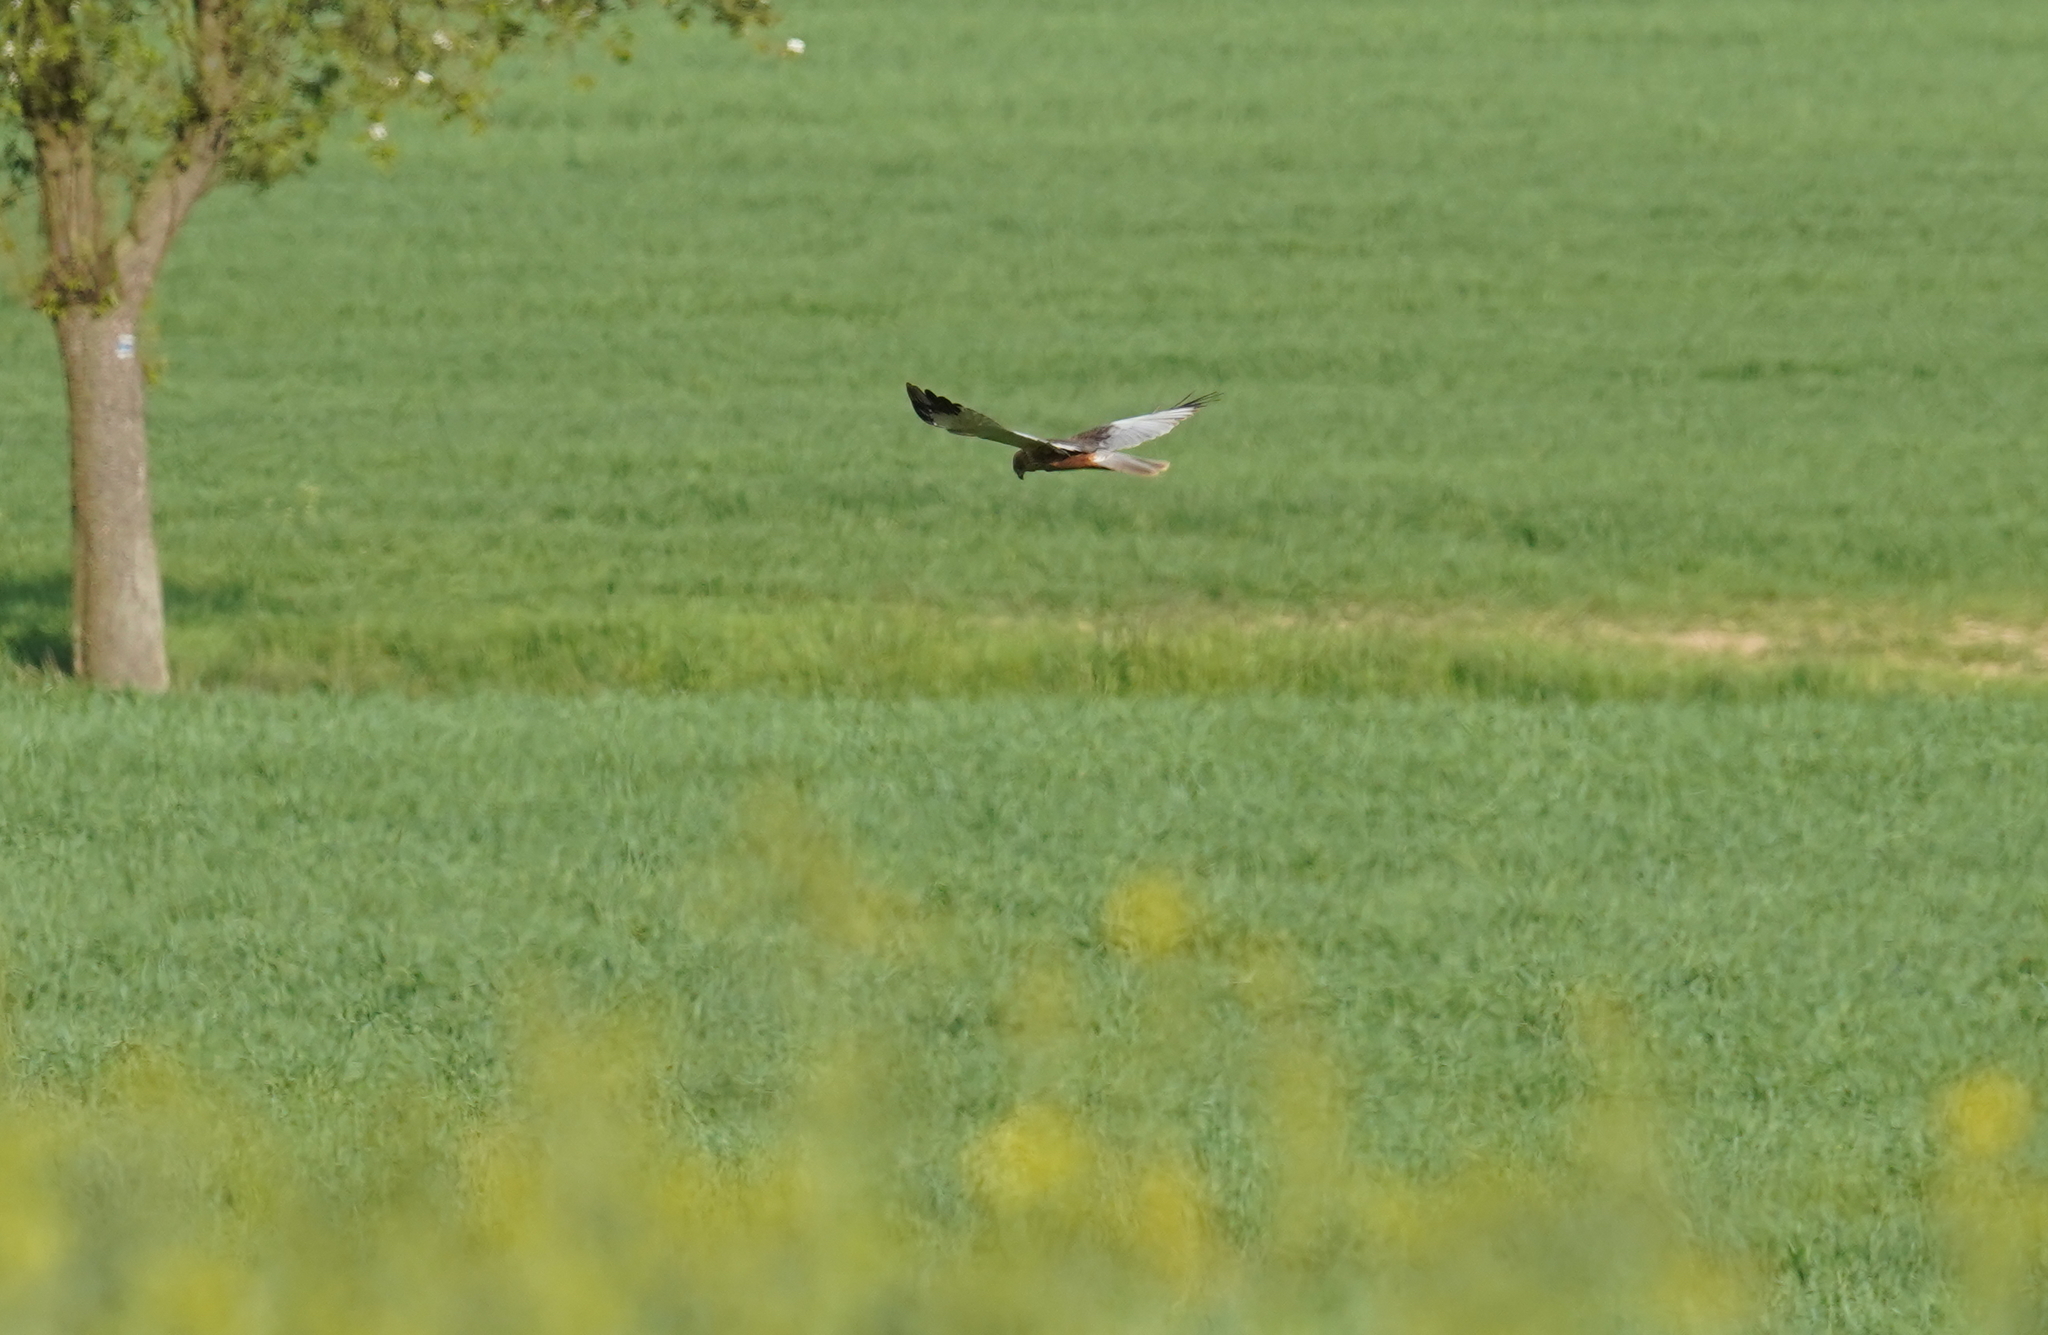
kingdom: Animalia
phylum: Chordata
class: Aves
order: Accipitriformes
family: Accipitridae
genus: Circus
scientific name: Circus aeruginosus
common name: Western marsh harrier
